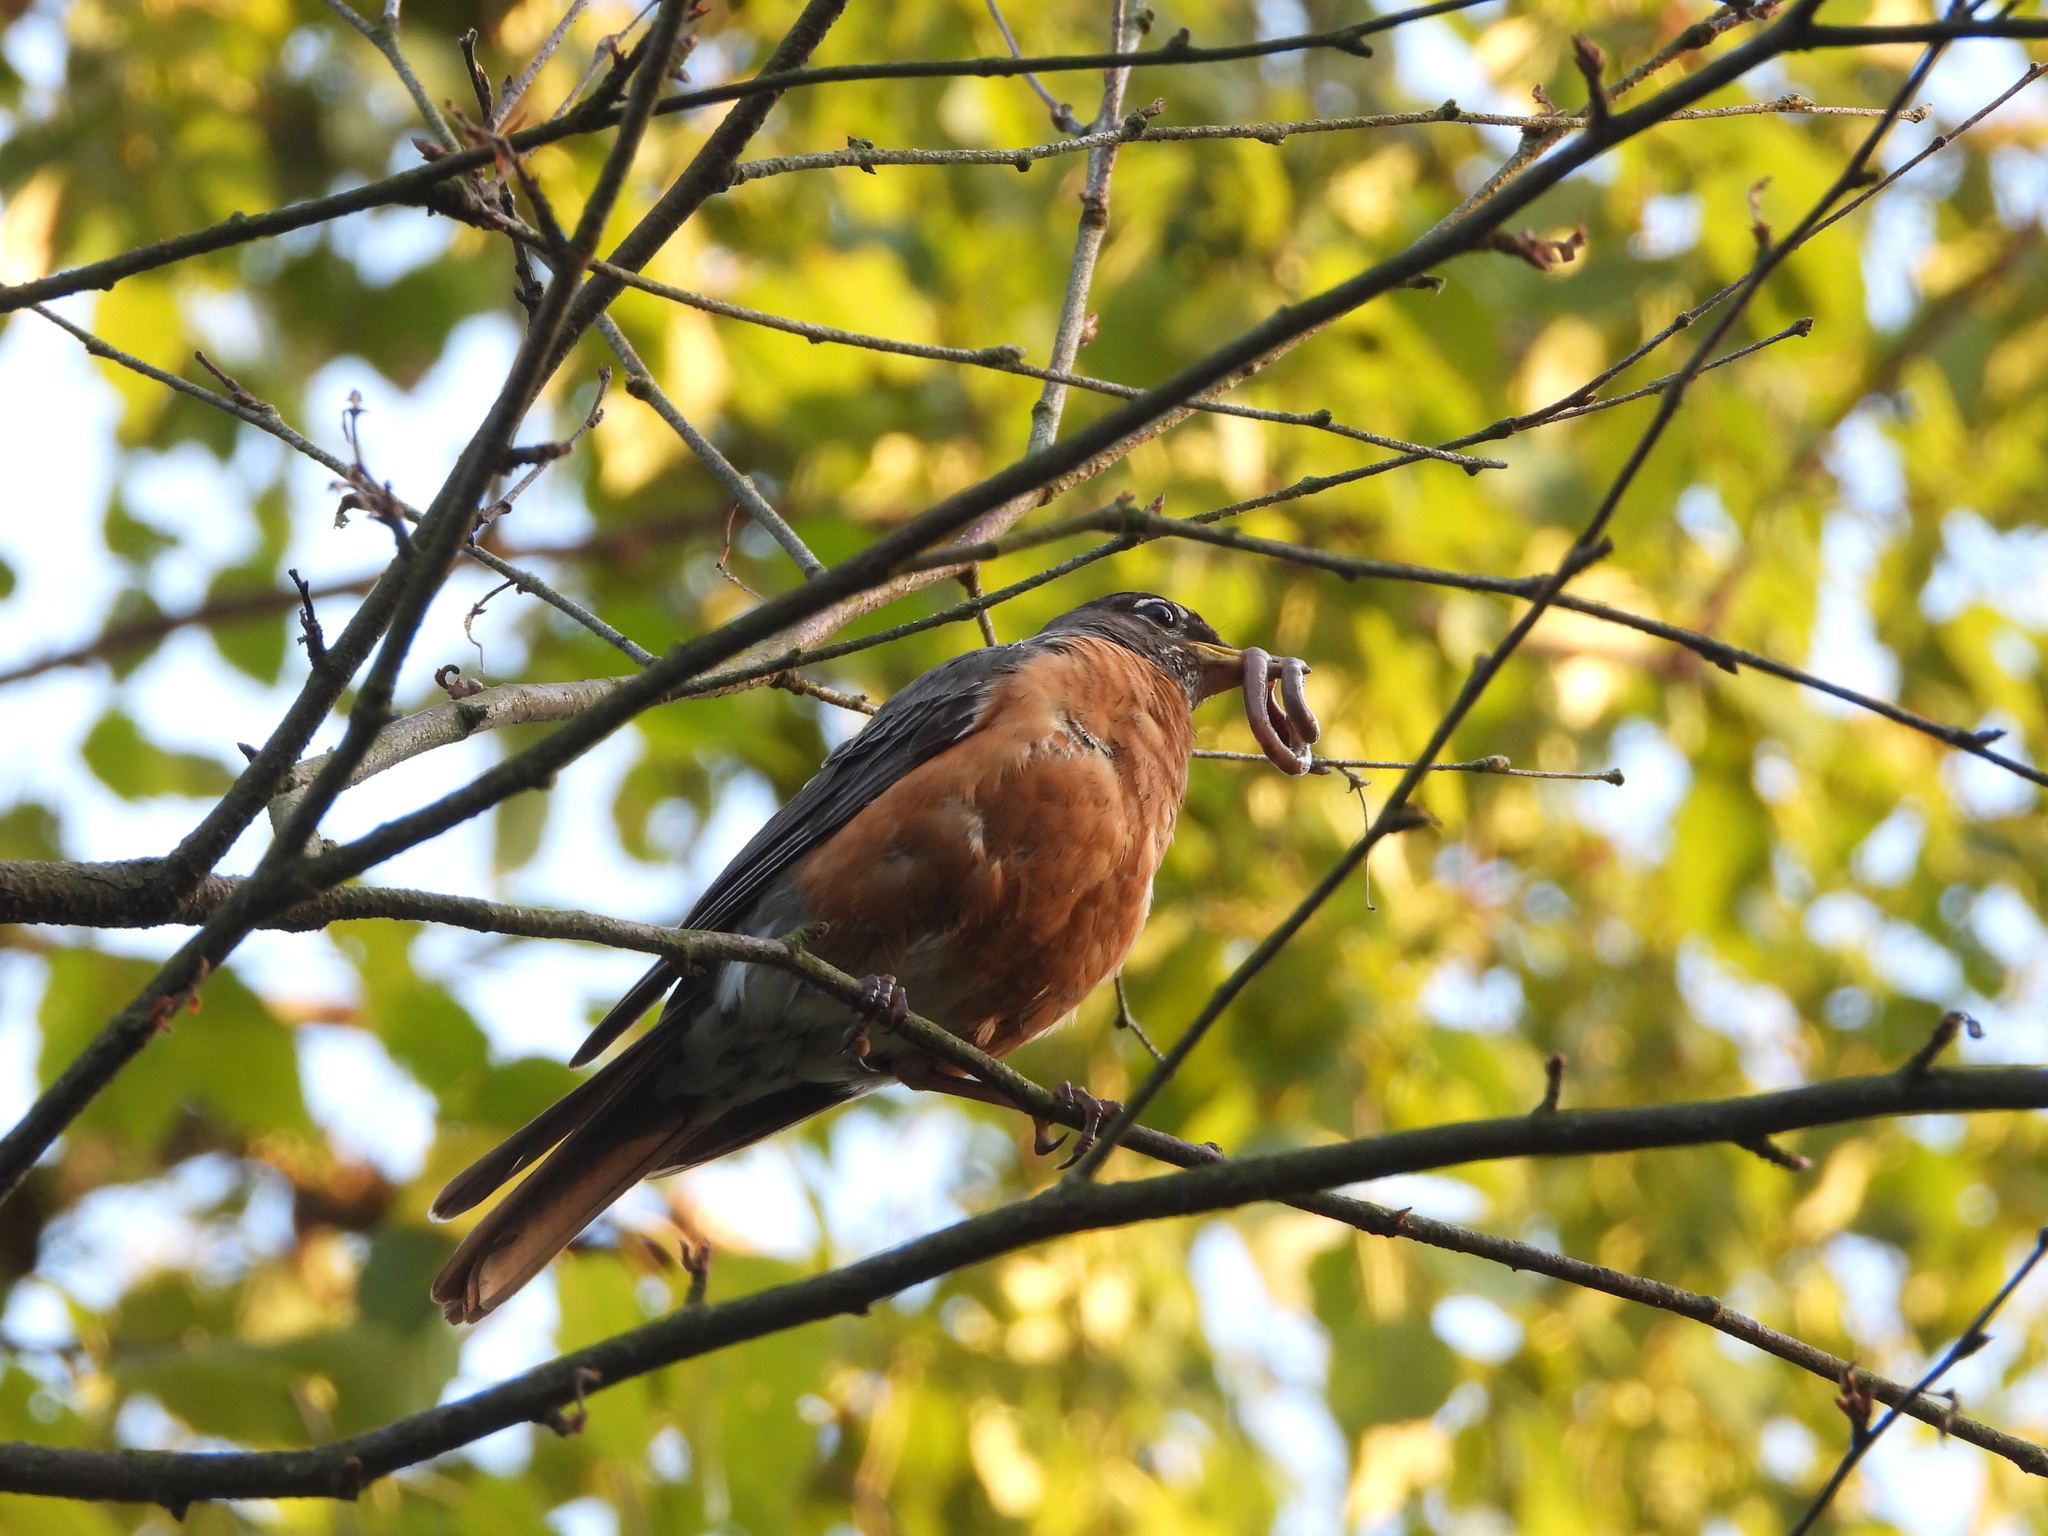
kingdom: Animalia
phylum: Chordata
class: Aves
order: Passeriformes
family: Turdidae
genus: Turdus
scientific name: Turdus migratorius
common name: American robin
